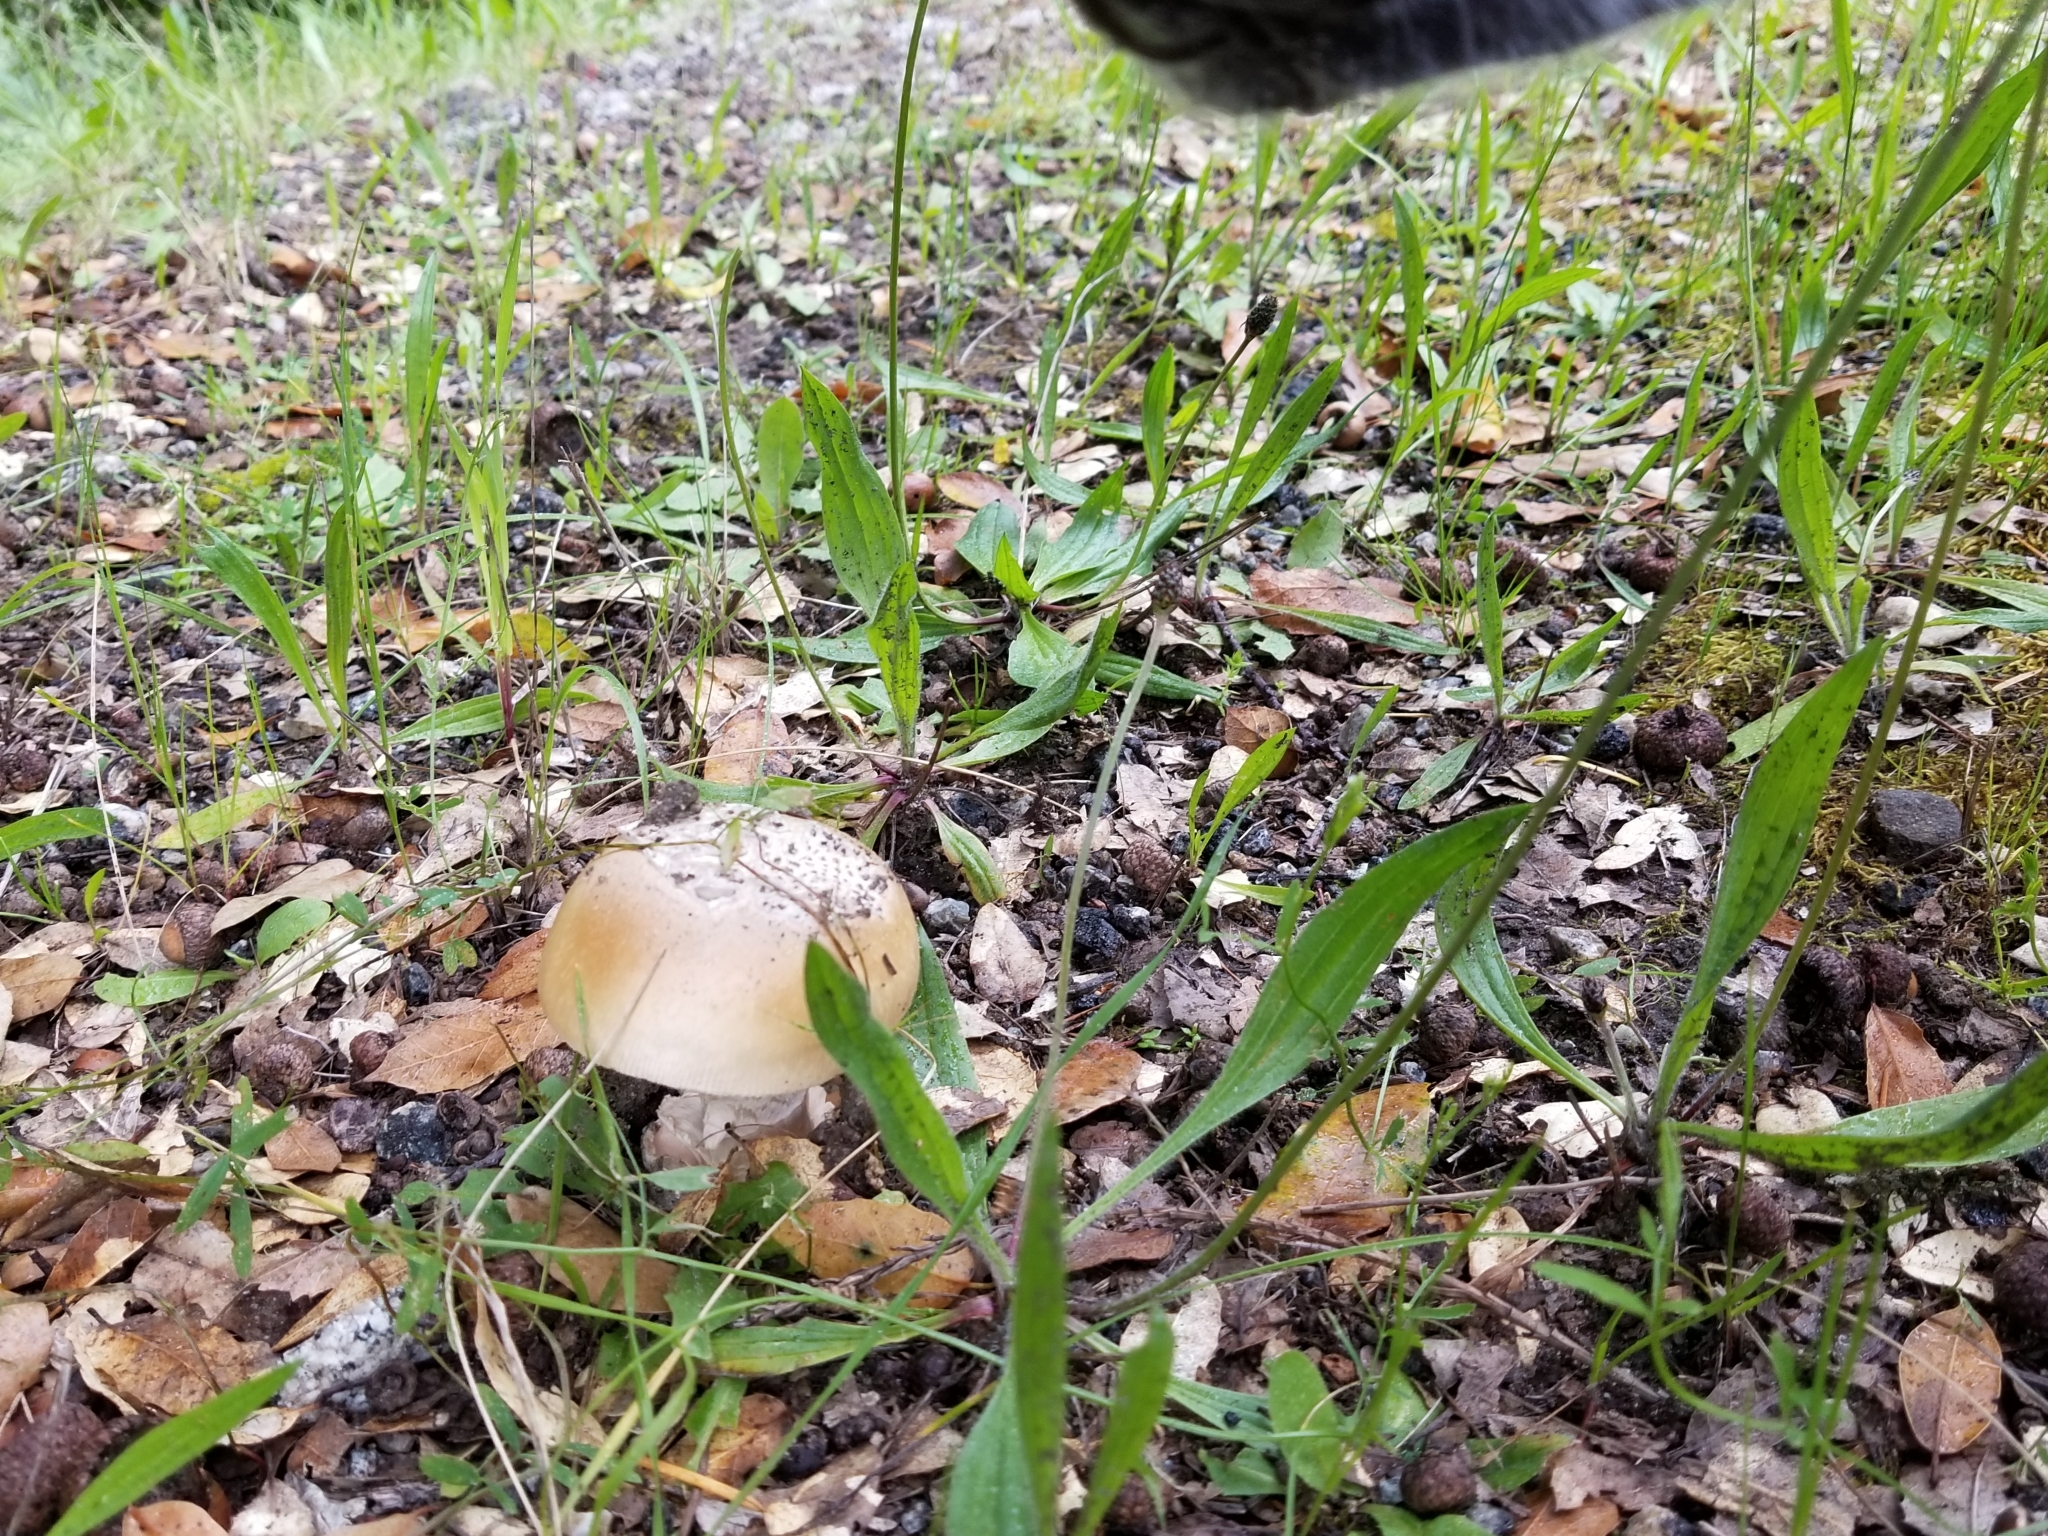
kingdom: Fungi
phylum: Basidiomycota
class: Agaricomycetes
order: Agaricales
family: Amanitaceae
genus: Amanita
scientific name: Amanita velosa
